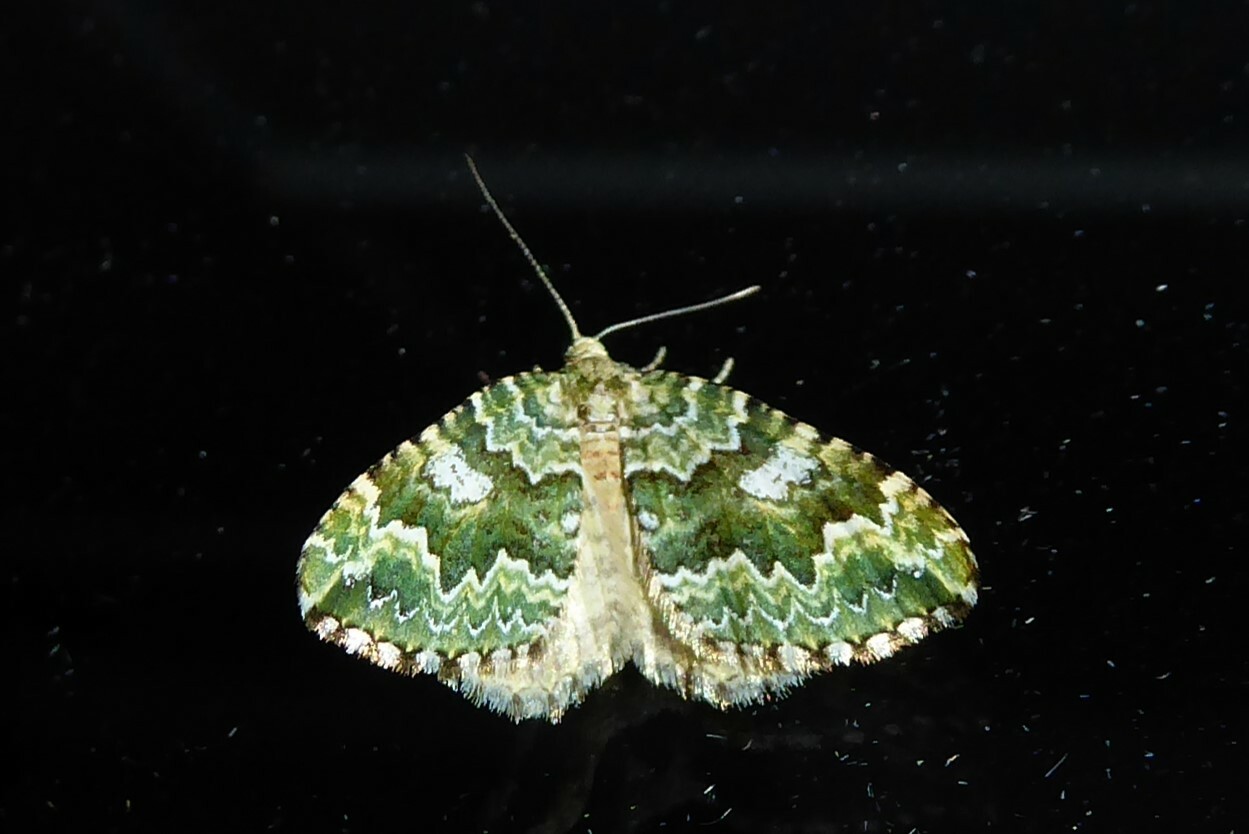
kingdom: Animalia
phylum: Arthropoda
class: Insecta
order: Lepidoptera
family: Geometridae
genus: Asaphodes
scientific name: Asaphodes beata
